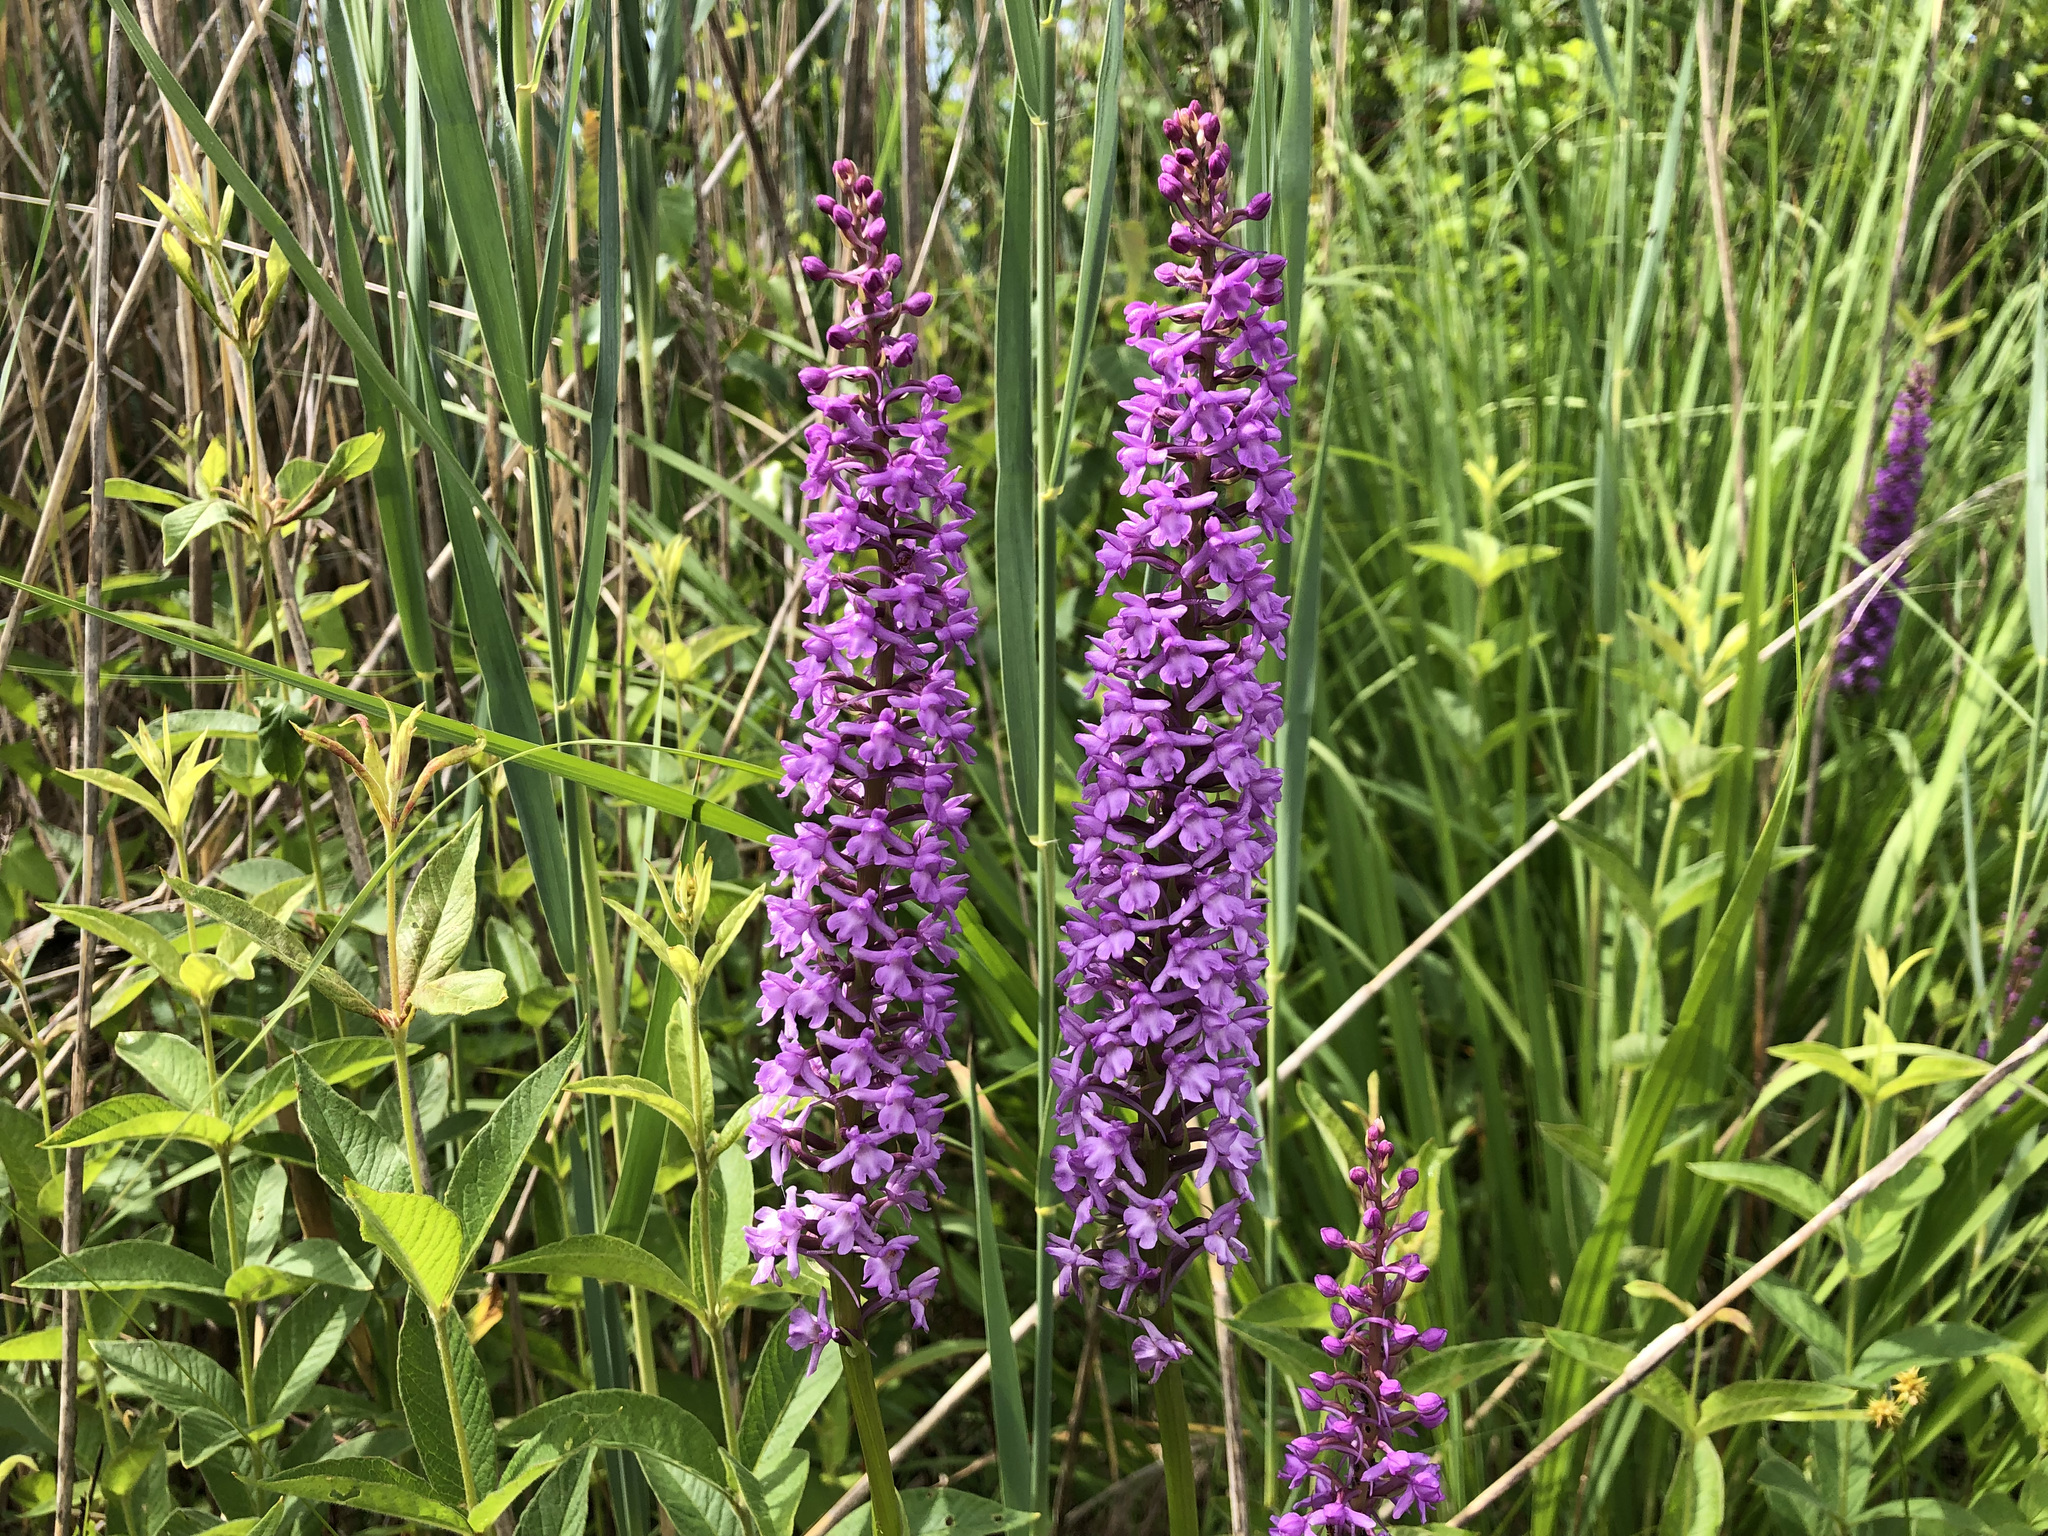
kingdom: Plantae
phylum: Tracheophyta
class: Liliopsida
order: Asparagales
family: Orchidaceae
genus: Gymnadenia
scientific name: Gymnadenia conopsea
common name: Fragrant orchid
